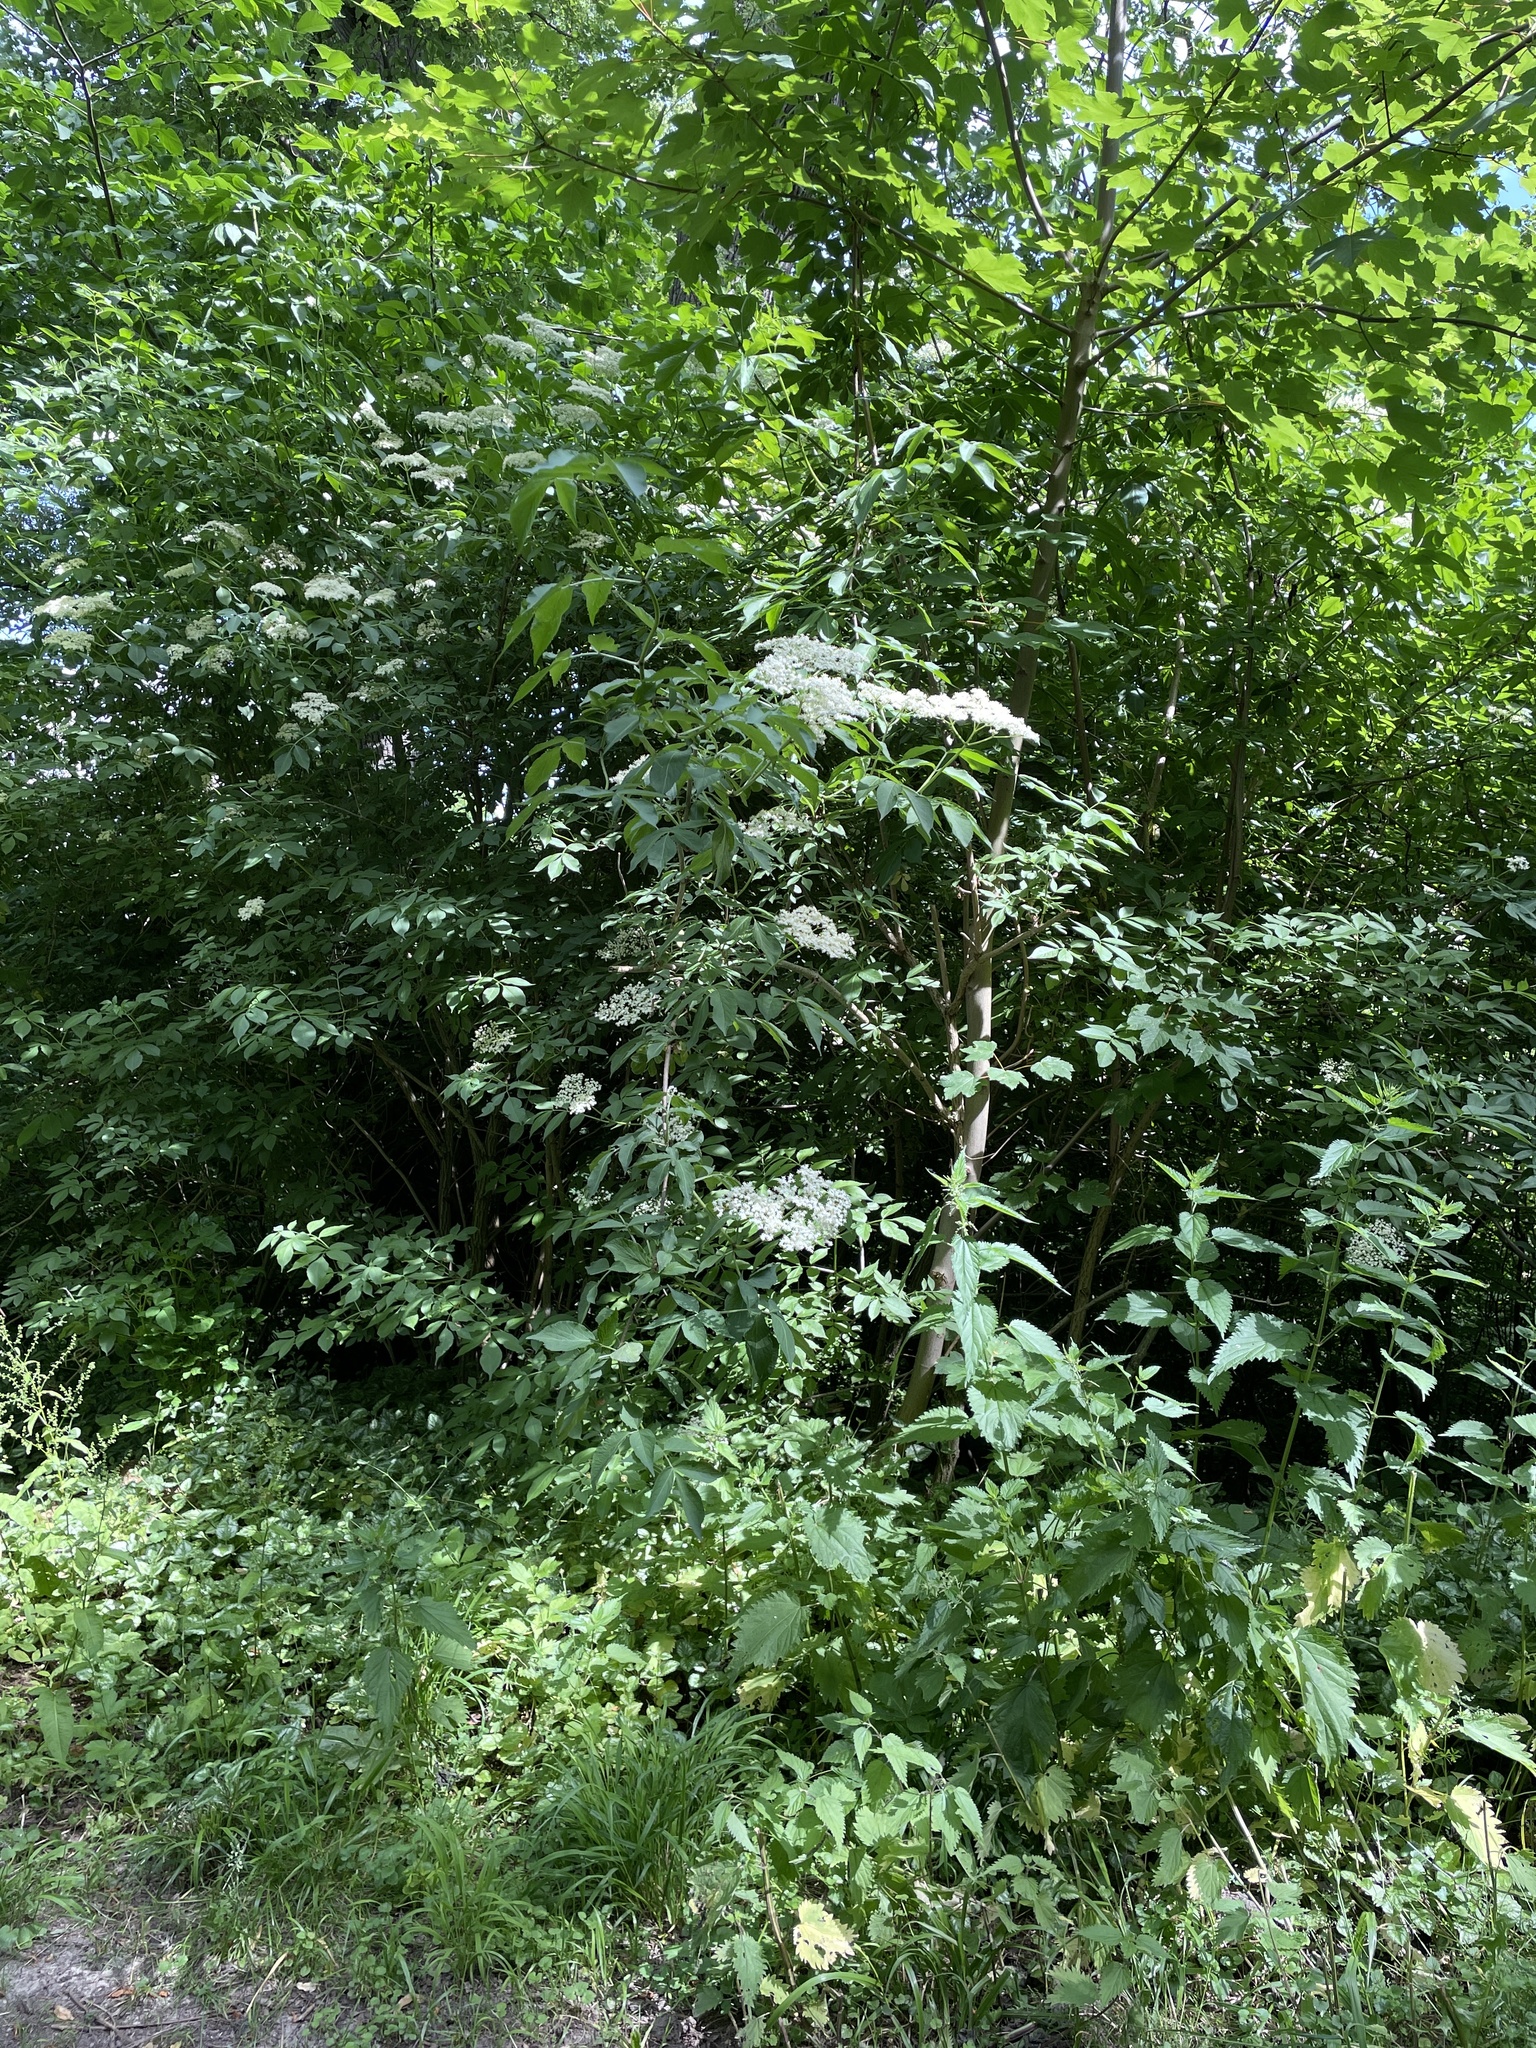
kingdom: Plantae
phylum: Tracheophyta
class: Magnoliopsida
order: Dipsacales
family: Viburnaceae
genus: Sambucus
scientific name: Sambucus nigra
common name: Elder
